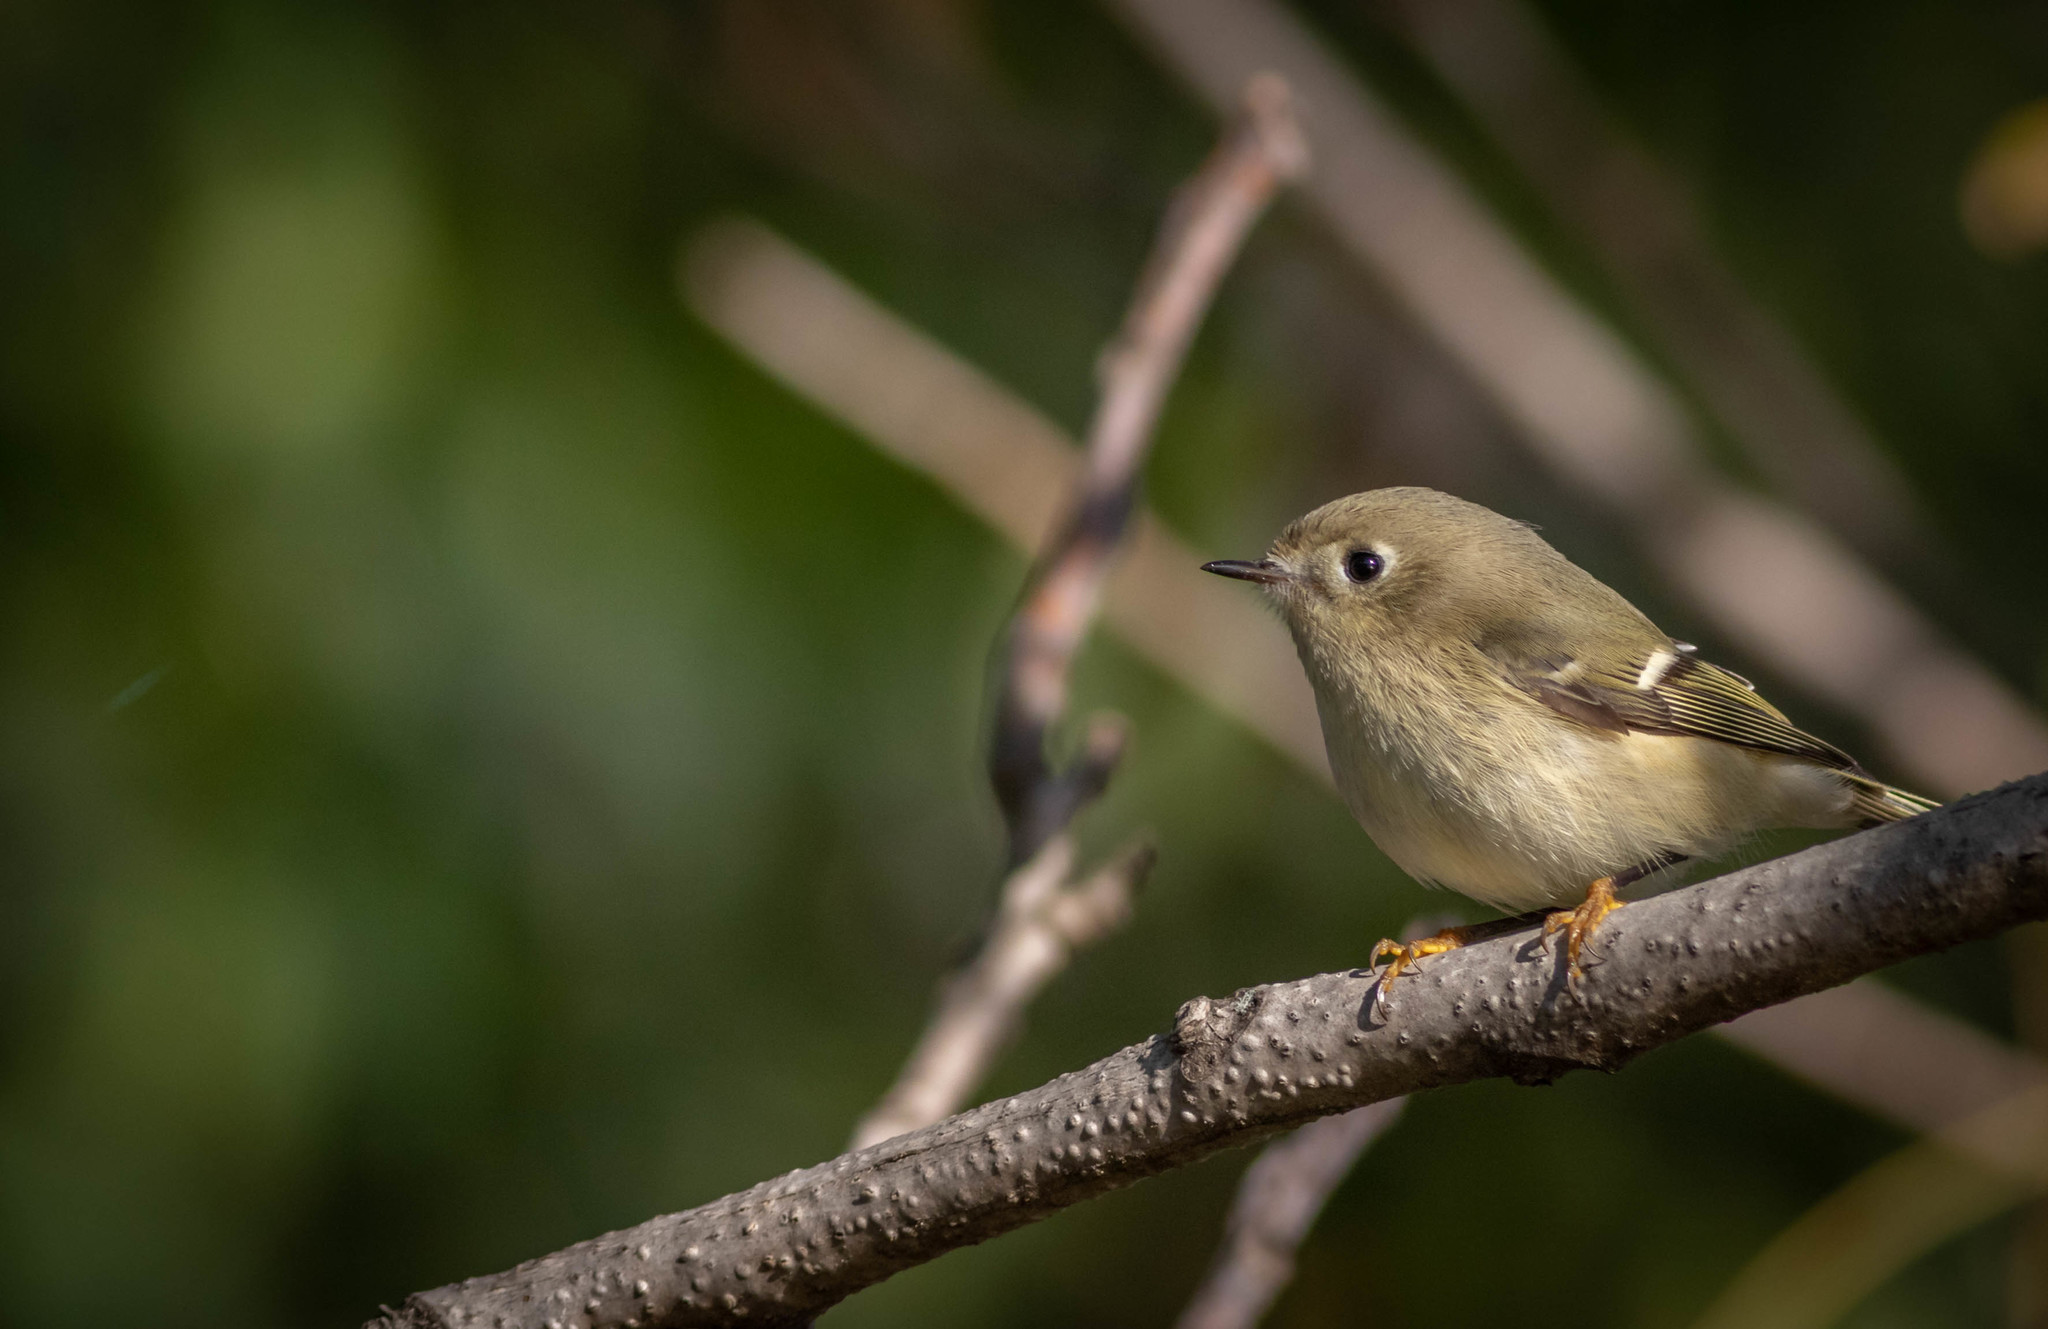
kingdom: Animalia
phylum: Chordata
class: Aves
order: Passeriformes
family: Regulidae
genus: Regulus
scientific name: Regulus calendula
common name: Ruby-crowned kinglet
